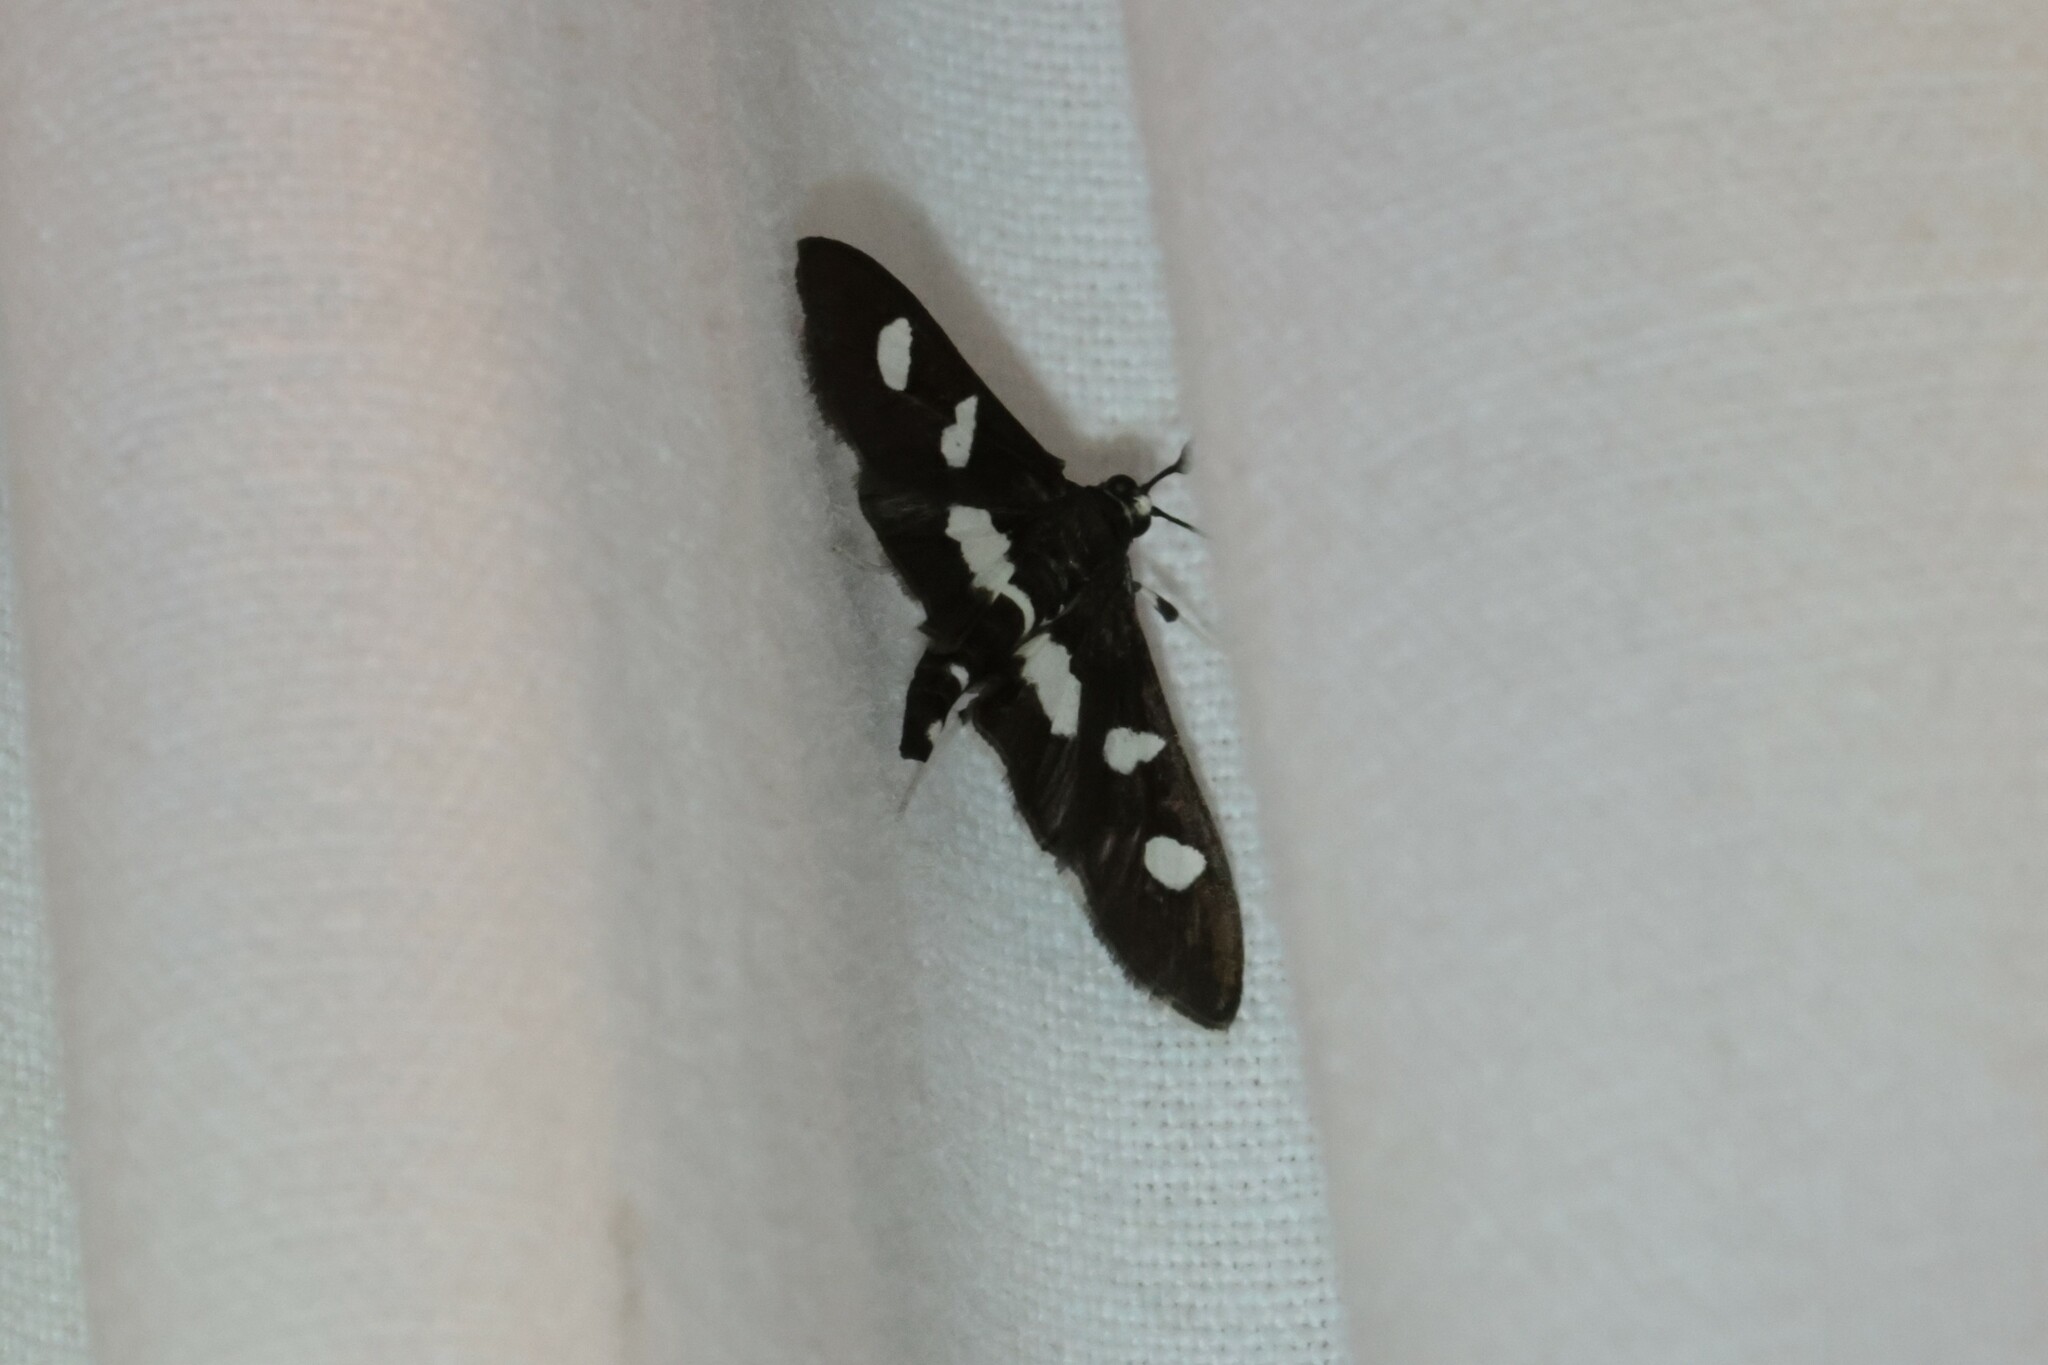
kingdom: Animalia
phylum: Arthropoda
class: Insecta
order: Lepidoptera
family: Crambidae
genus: Desmia
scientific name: Desmia
